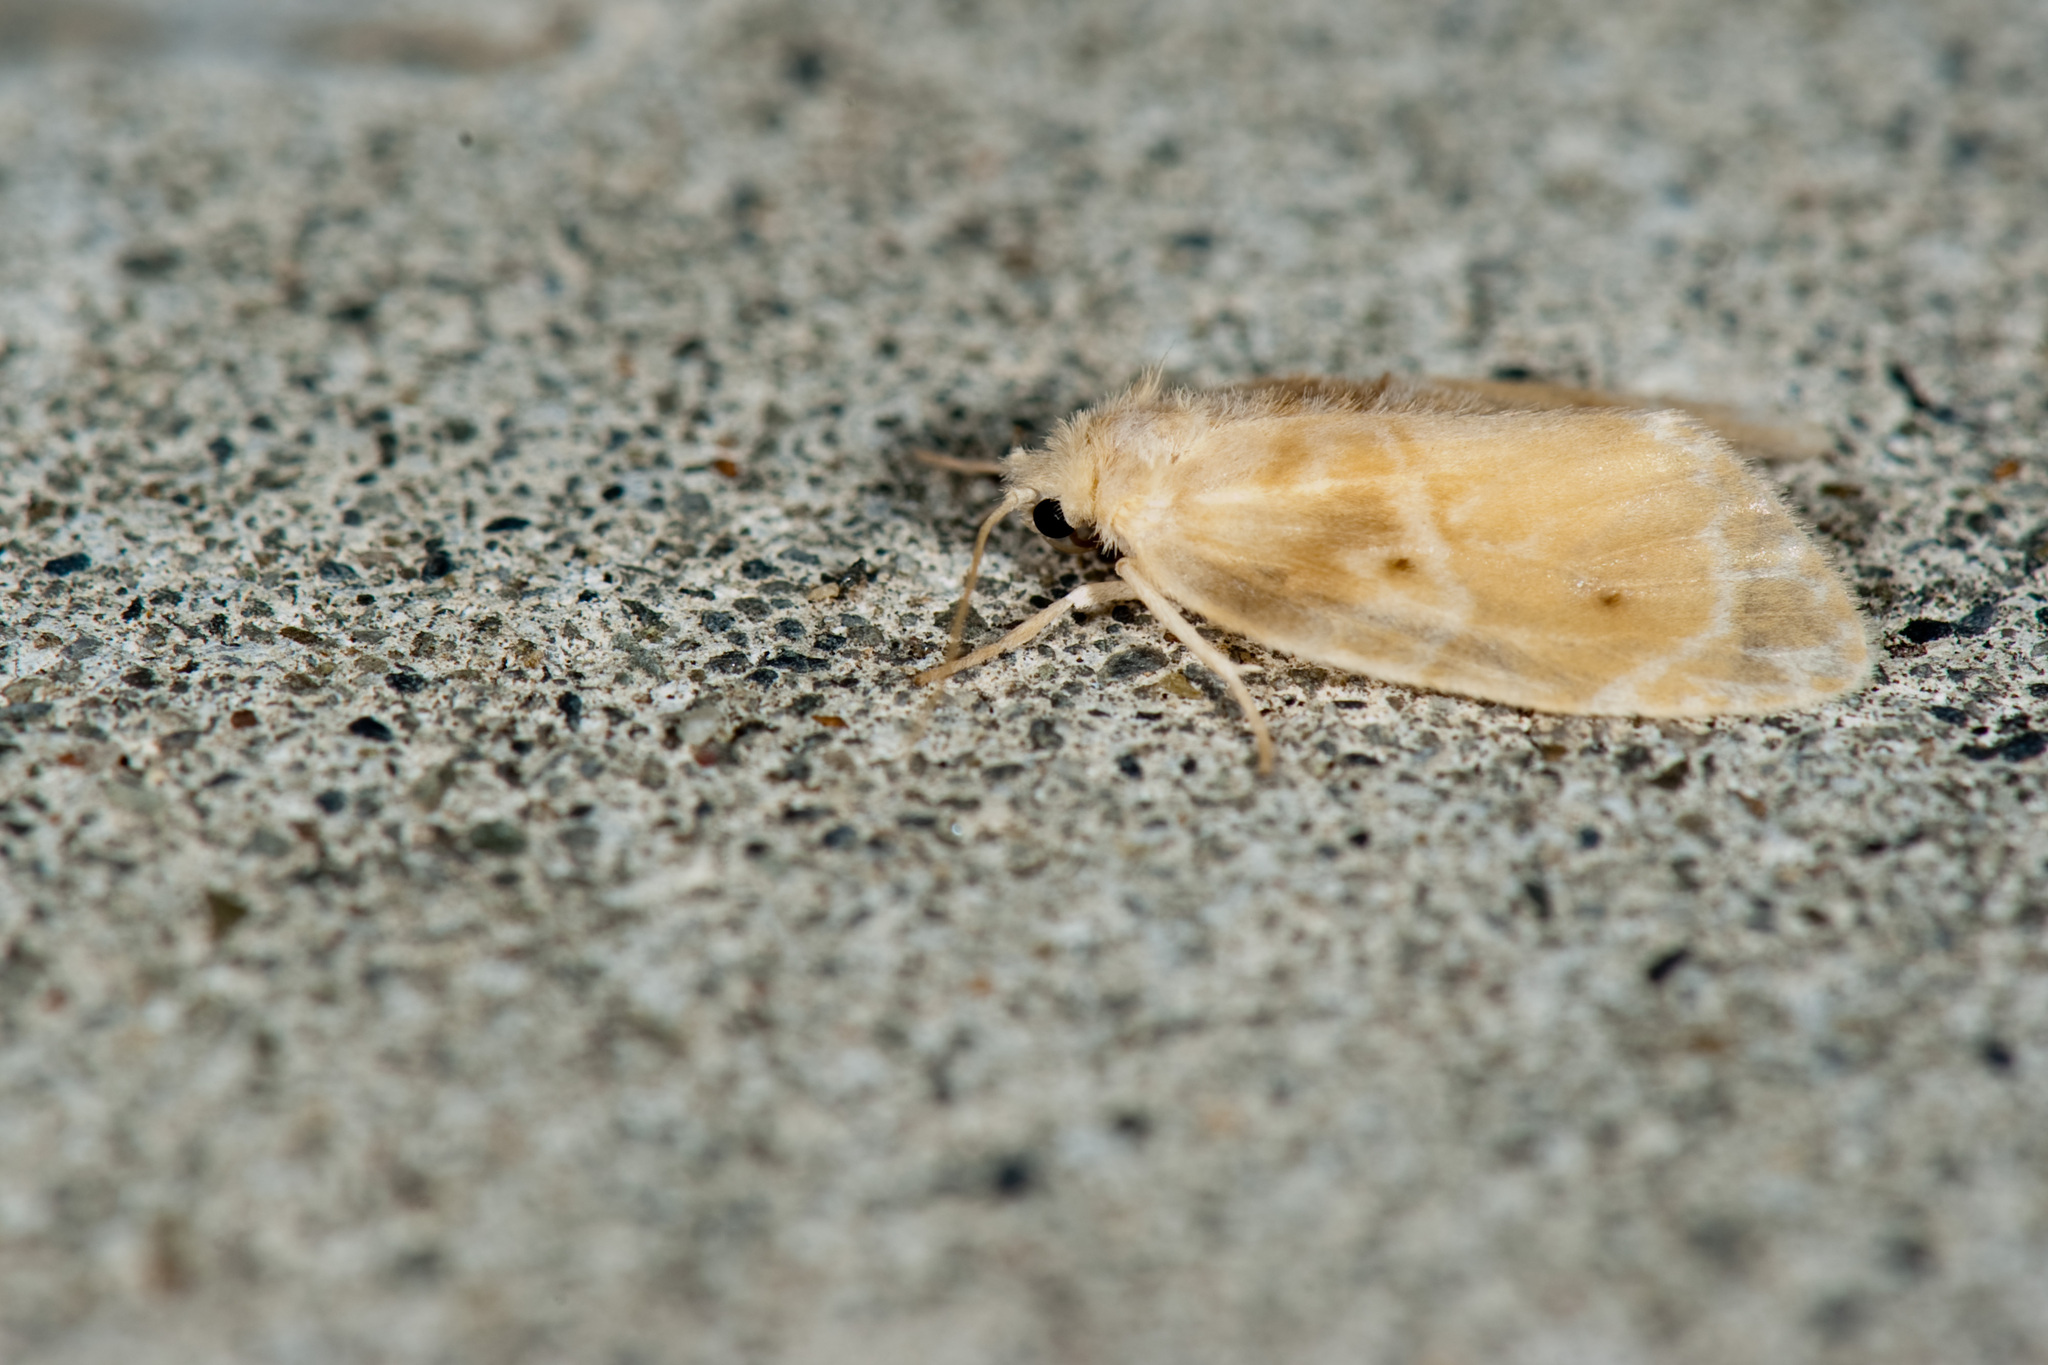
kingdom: Animalia
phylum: Arthropoda
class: Insecta
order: Lepidoptera
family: Erebidae
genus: Schistophleps
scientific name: Schistophleps bipuncta
